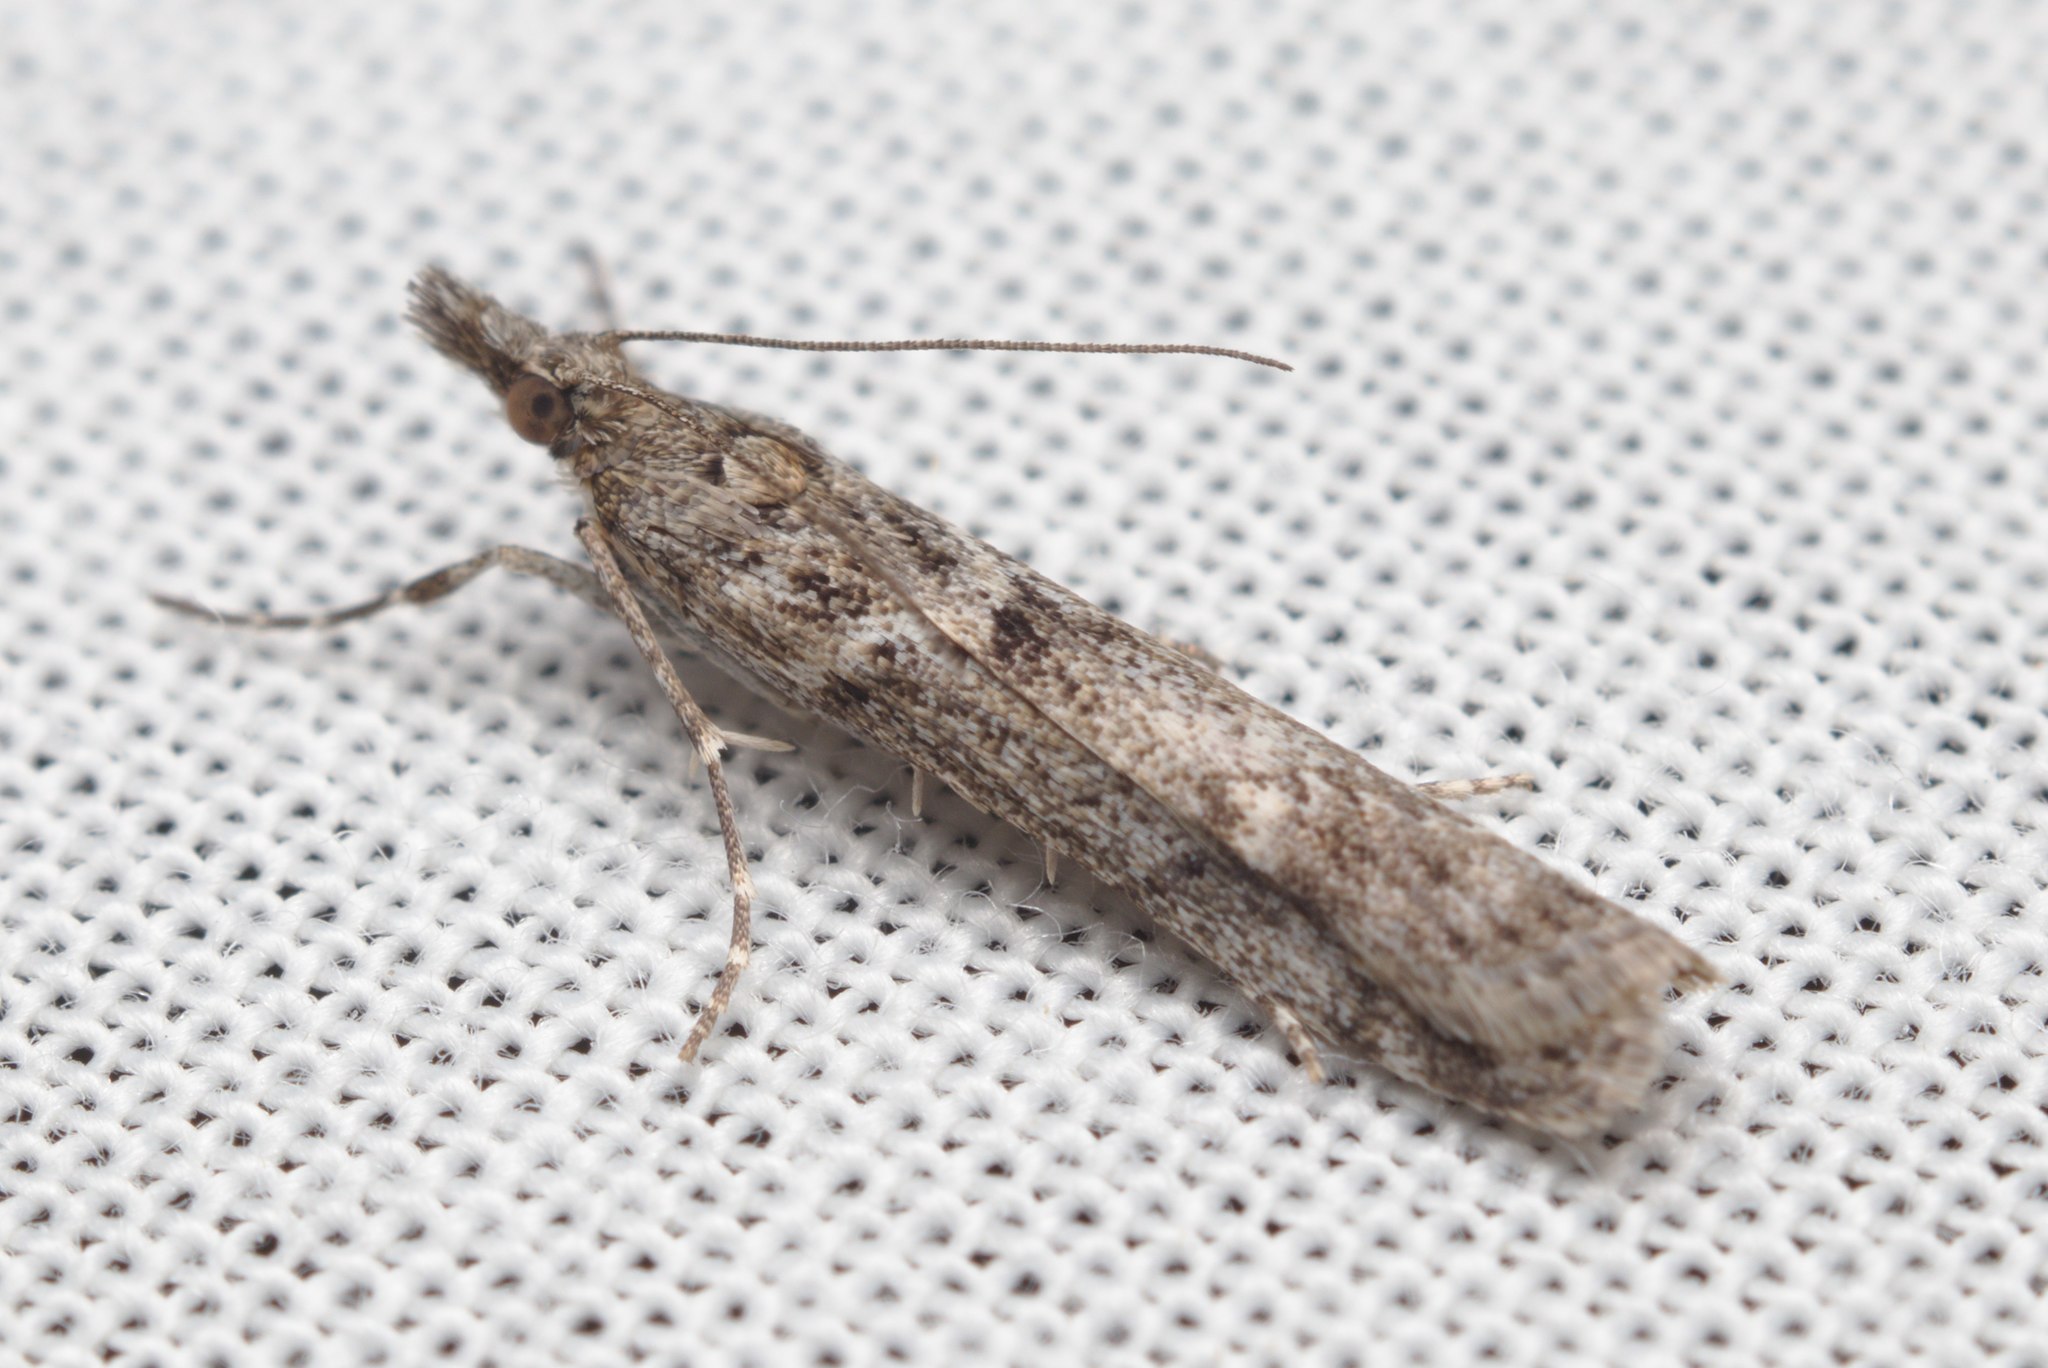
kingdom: Animalia
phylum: Arthropoda
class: Insecta
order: Lepidoptera
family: Crambidae
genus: Eudonia
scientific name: Eudonia leptalea
